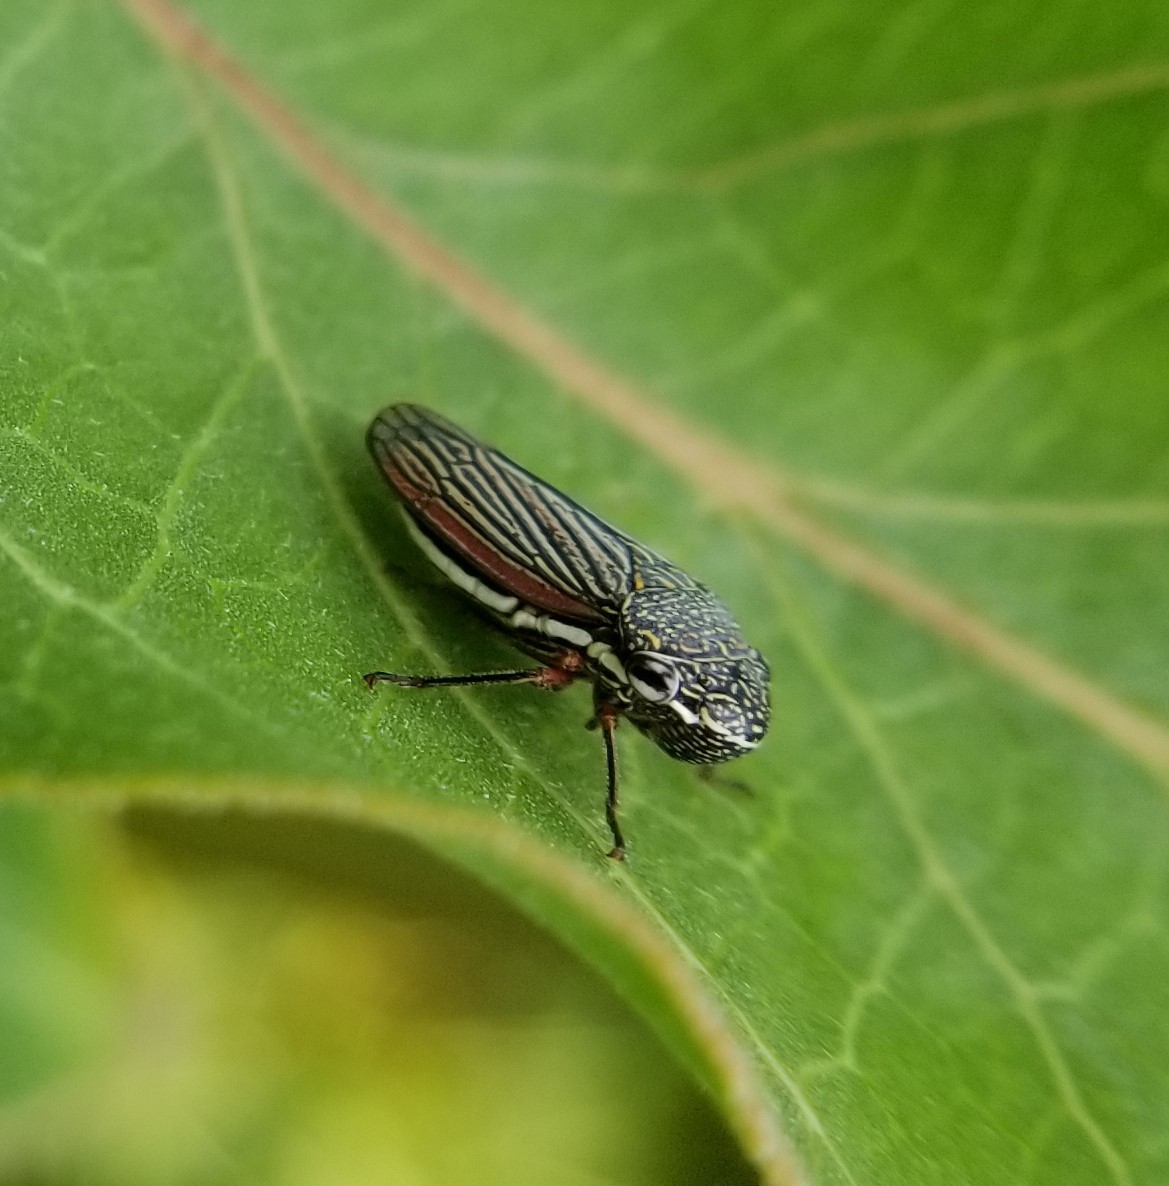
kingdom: Animalia
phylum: Arthropoda
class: Insecta
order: Hemiptera
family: Cicadellidae
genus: Cuerna
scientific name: Cuerna costalis
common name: Lateral-lined sharpshooter
